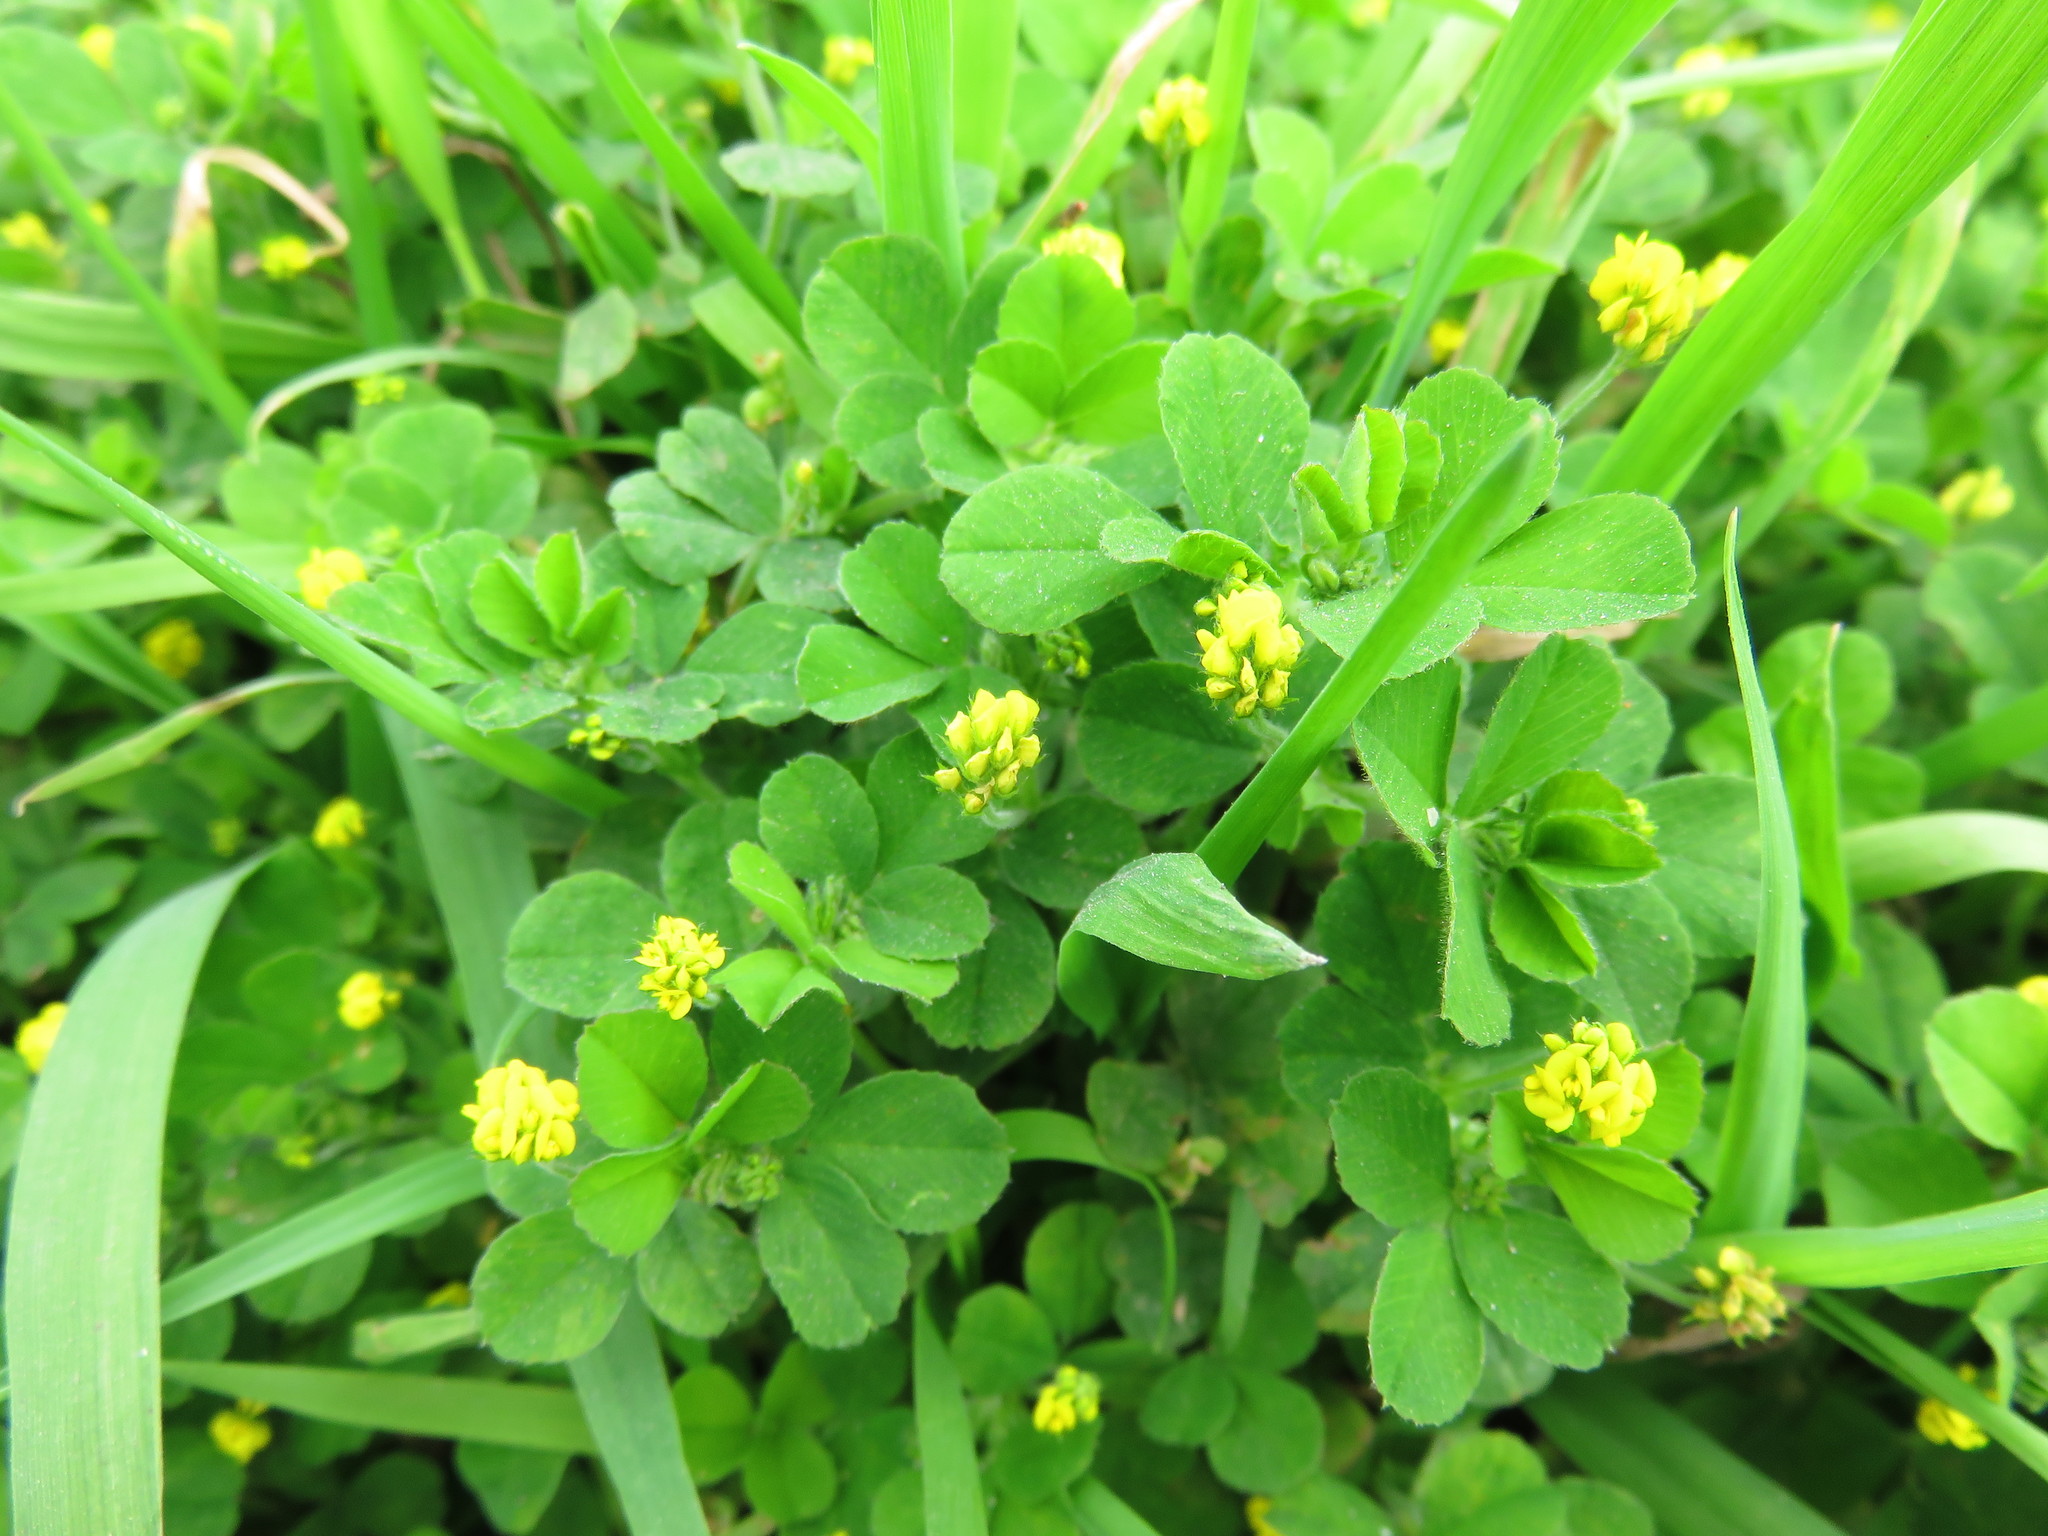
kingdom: Plantae
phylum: Tracheophyta
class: Magnoliopsida
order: Fabales
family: Fabaceae
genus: Medicago
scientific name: Medicago lupulina
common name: Black medick
